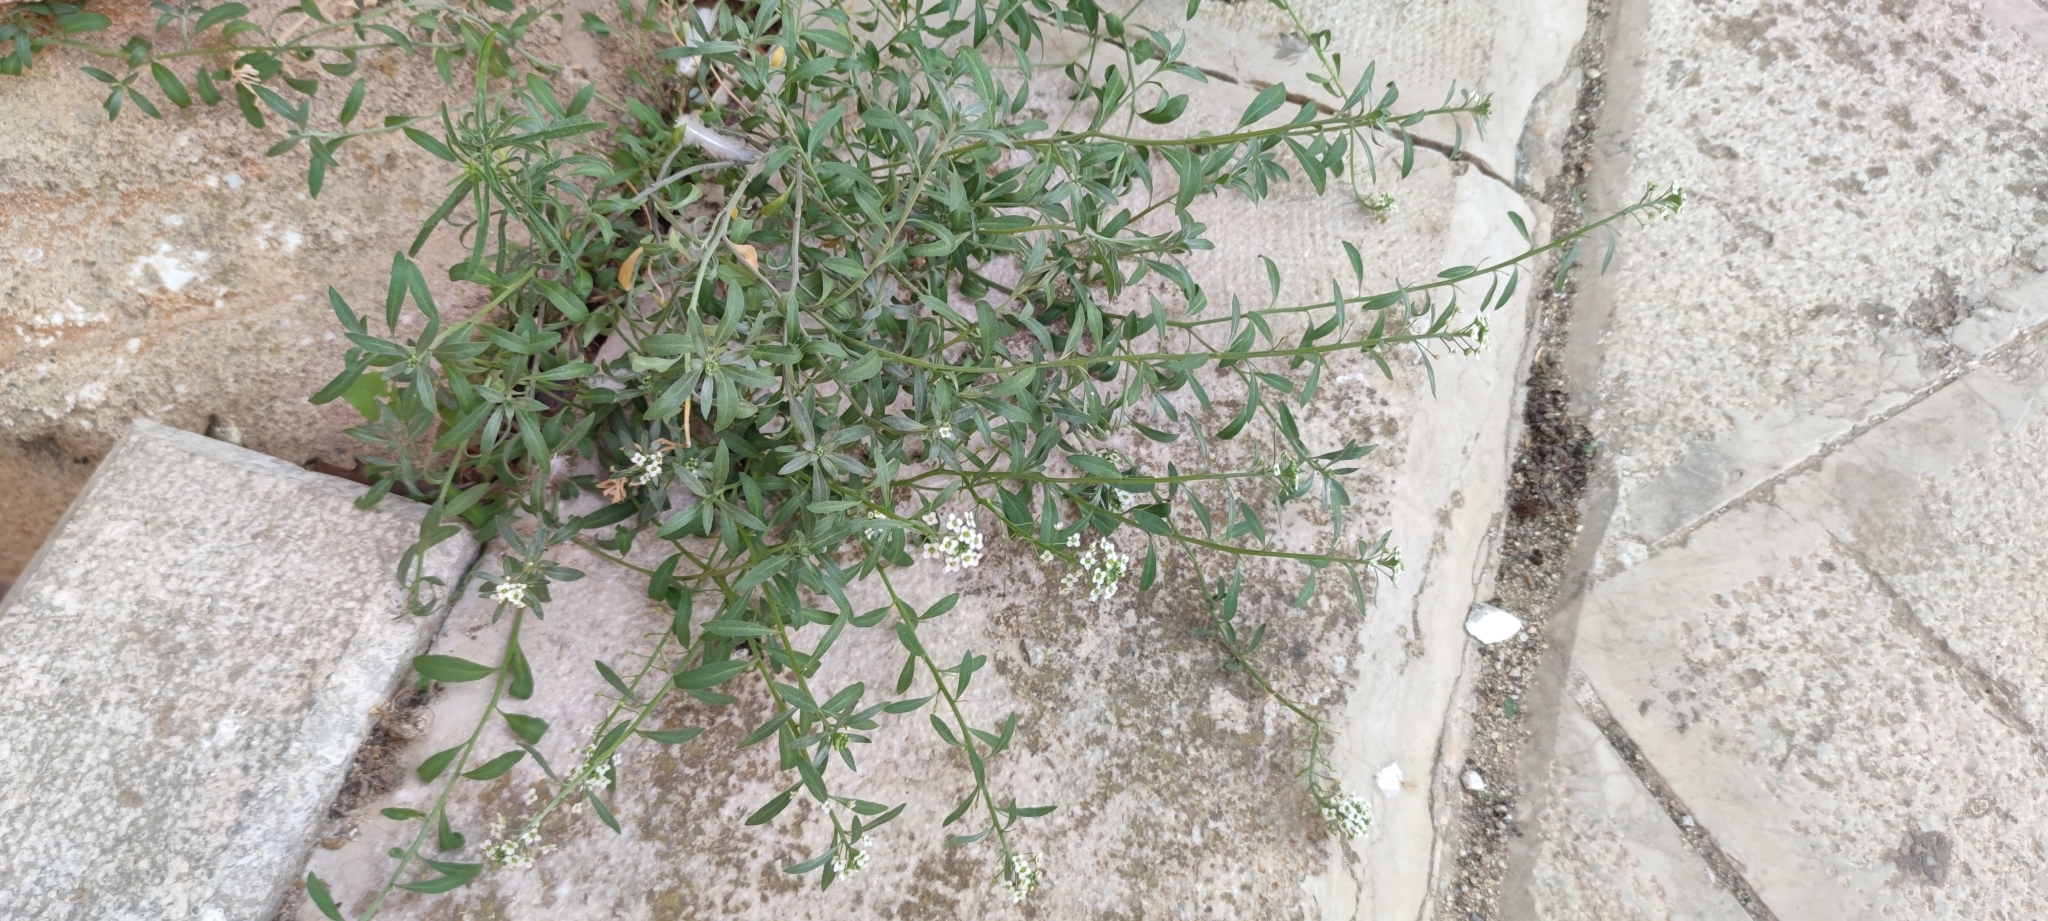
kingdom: Plantae
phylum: Tracheophyta
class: Magnoliopsida
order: Brassicales
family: Brassicaceae
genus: Lobularia
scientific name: Lobularia maritima
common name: Sweet alison
